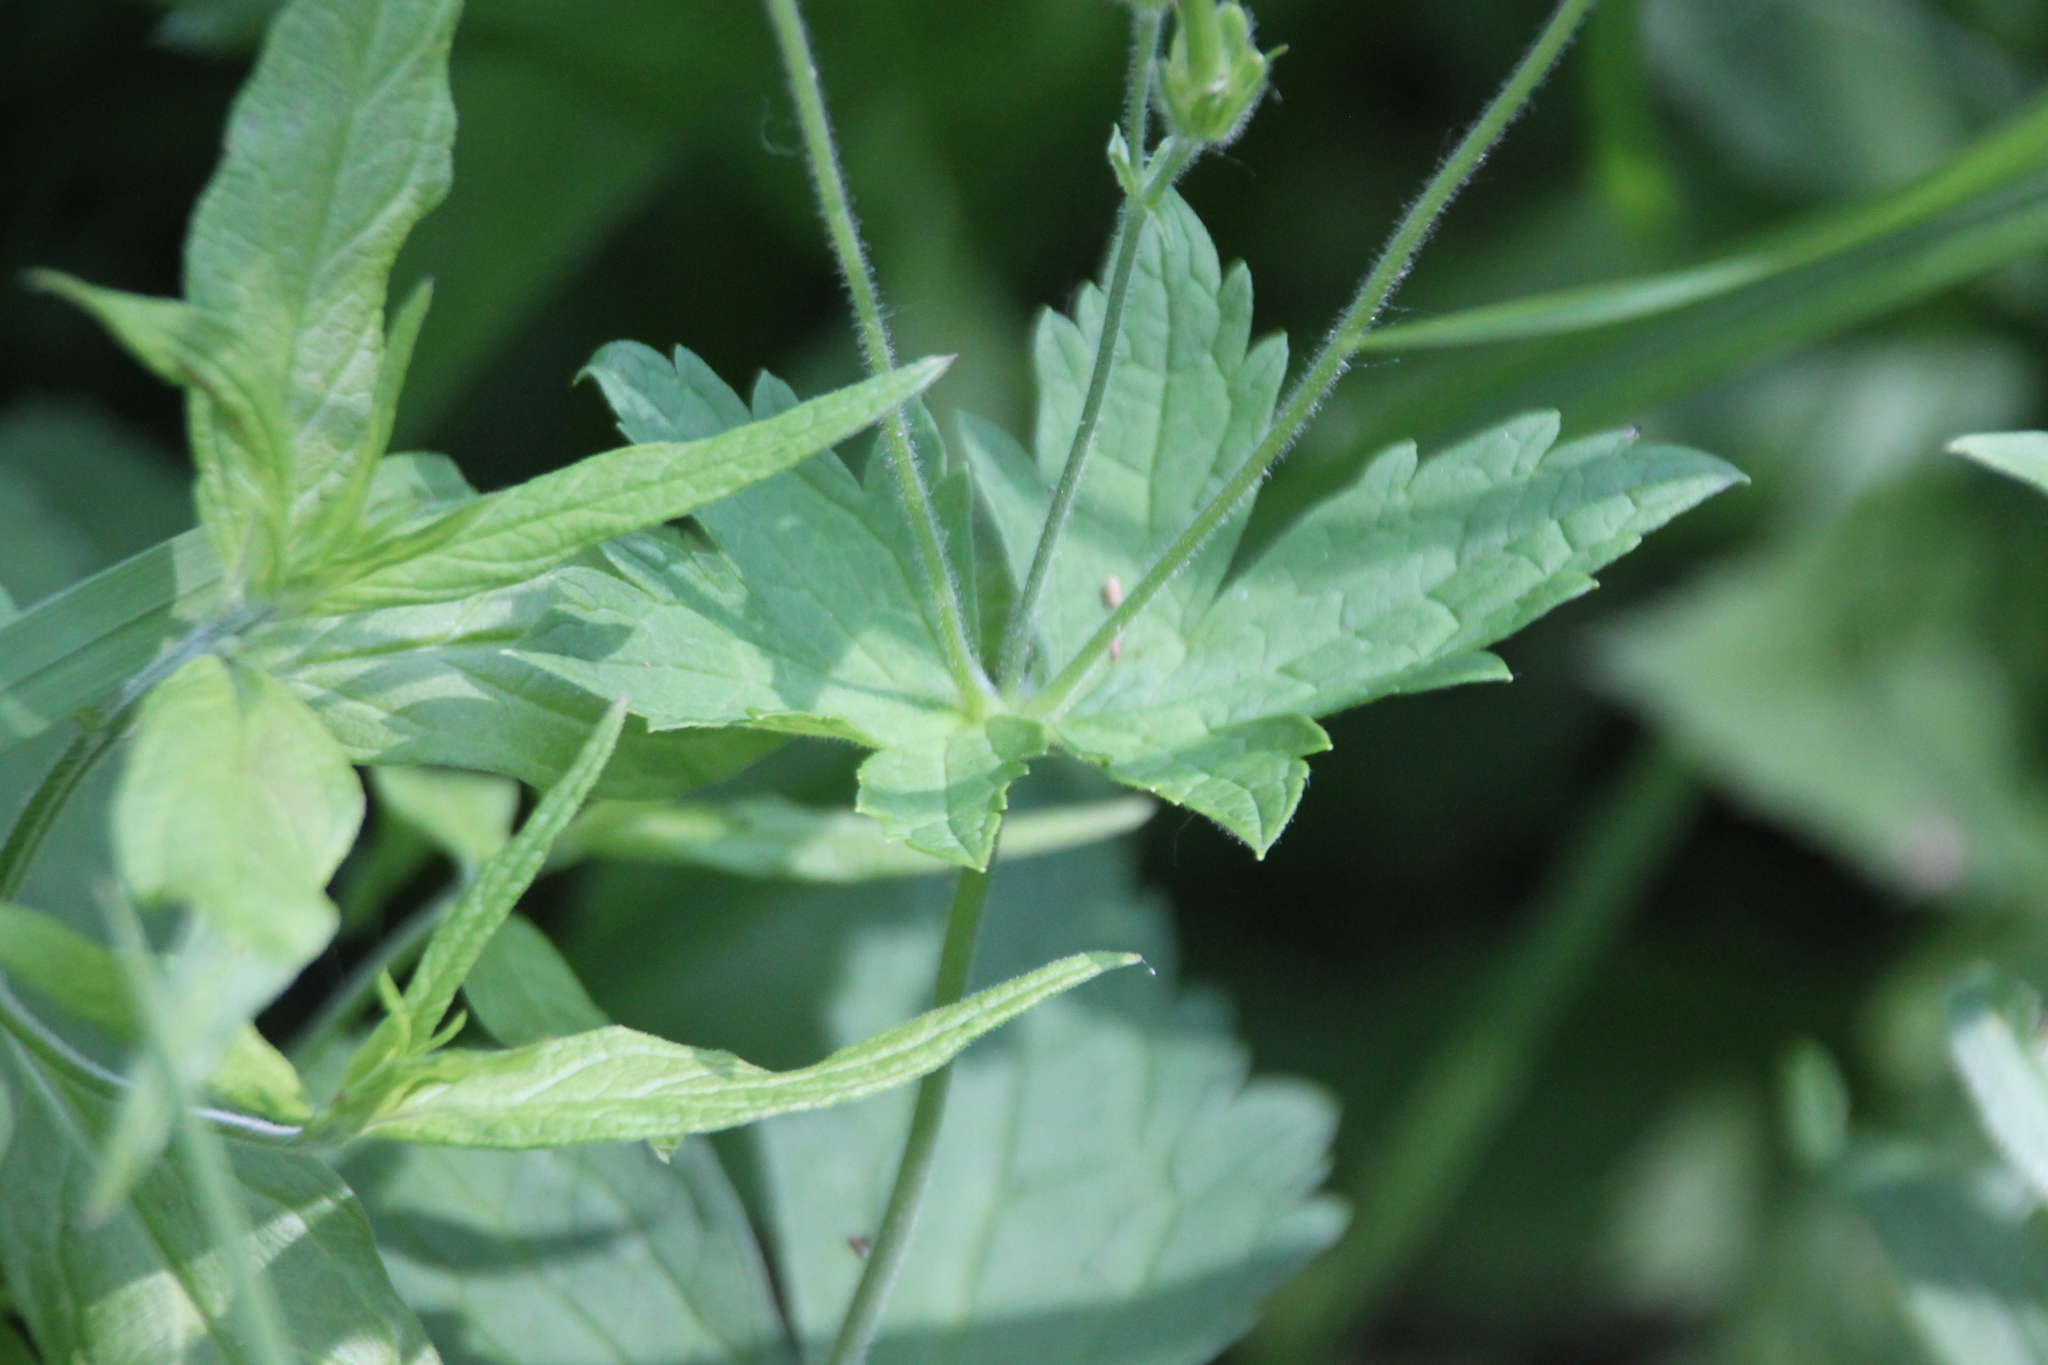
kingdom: Plantae
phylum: Tracheophyta
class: Magnoliopsida
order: Geraniales
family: Geraniaceae
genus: Geranium
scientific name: Geranium sylvaticum
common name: Wood crane's-bill
